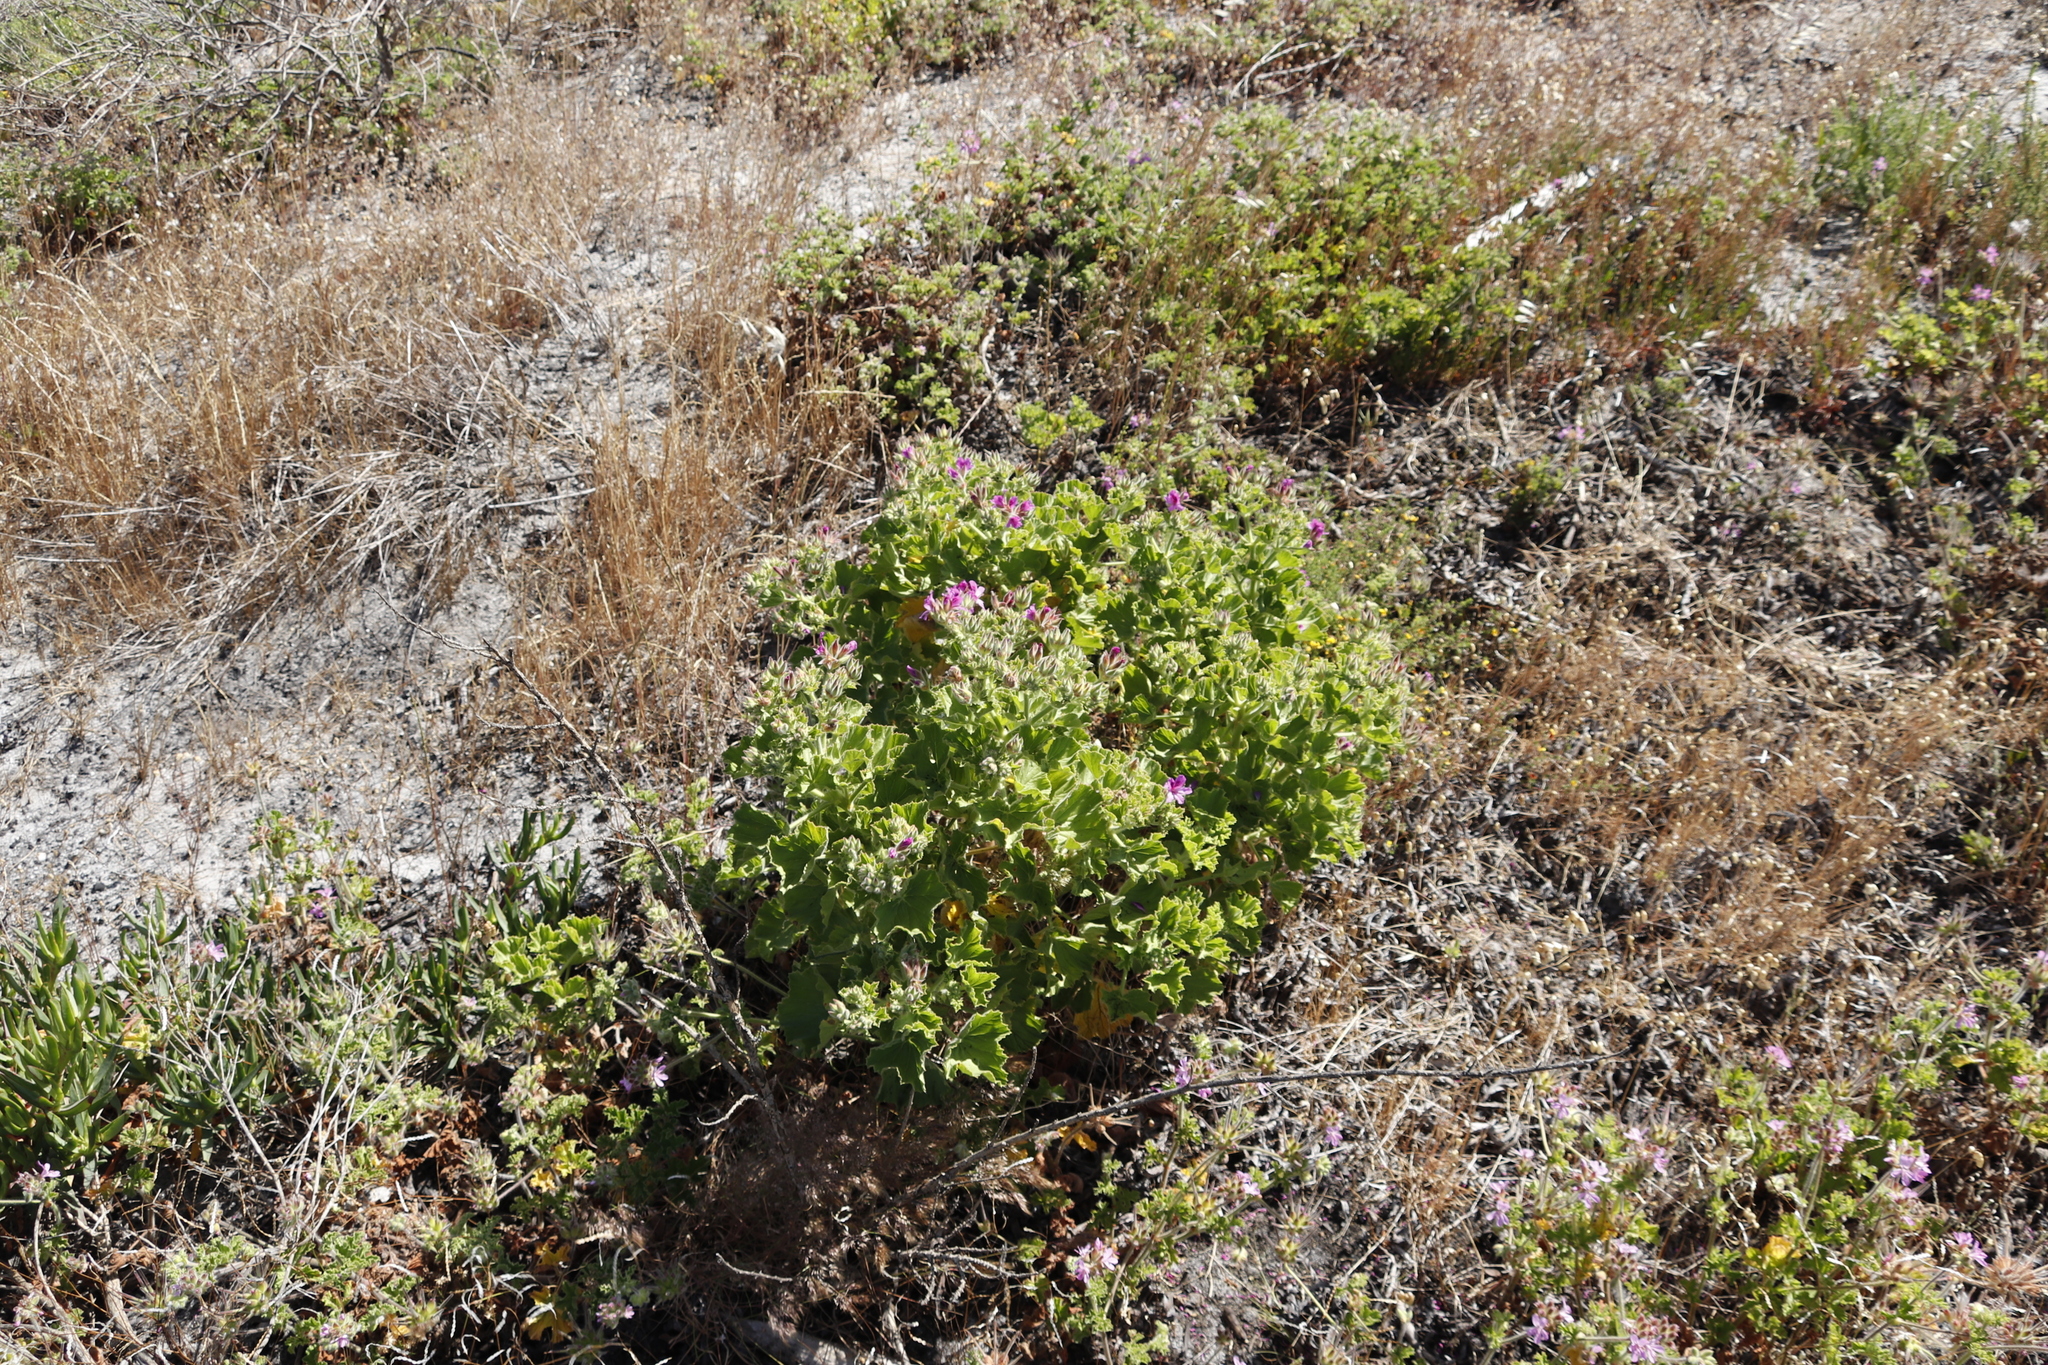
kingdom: Plantae
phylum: Tracheophyta
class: Magnoliopsida
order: Geraniales
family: Geraniaceae
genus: Pelargonium
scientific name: Pelargonium cucullatum
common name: Tree pelargonium
